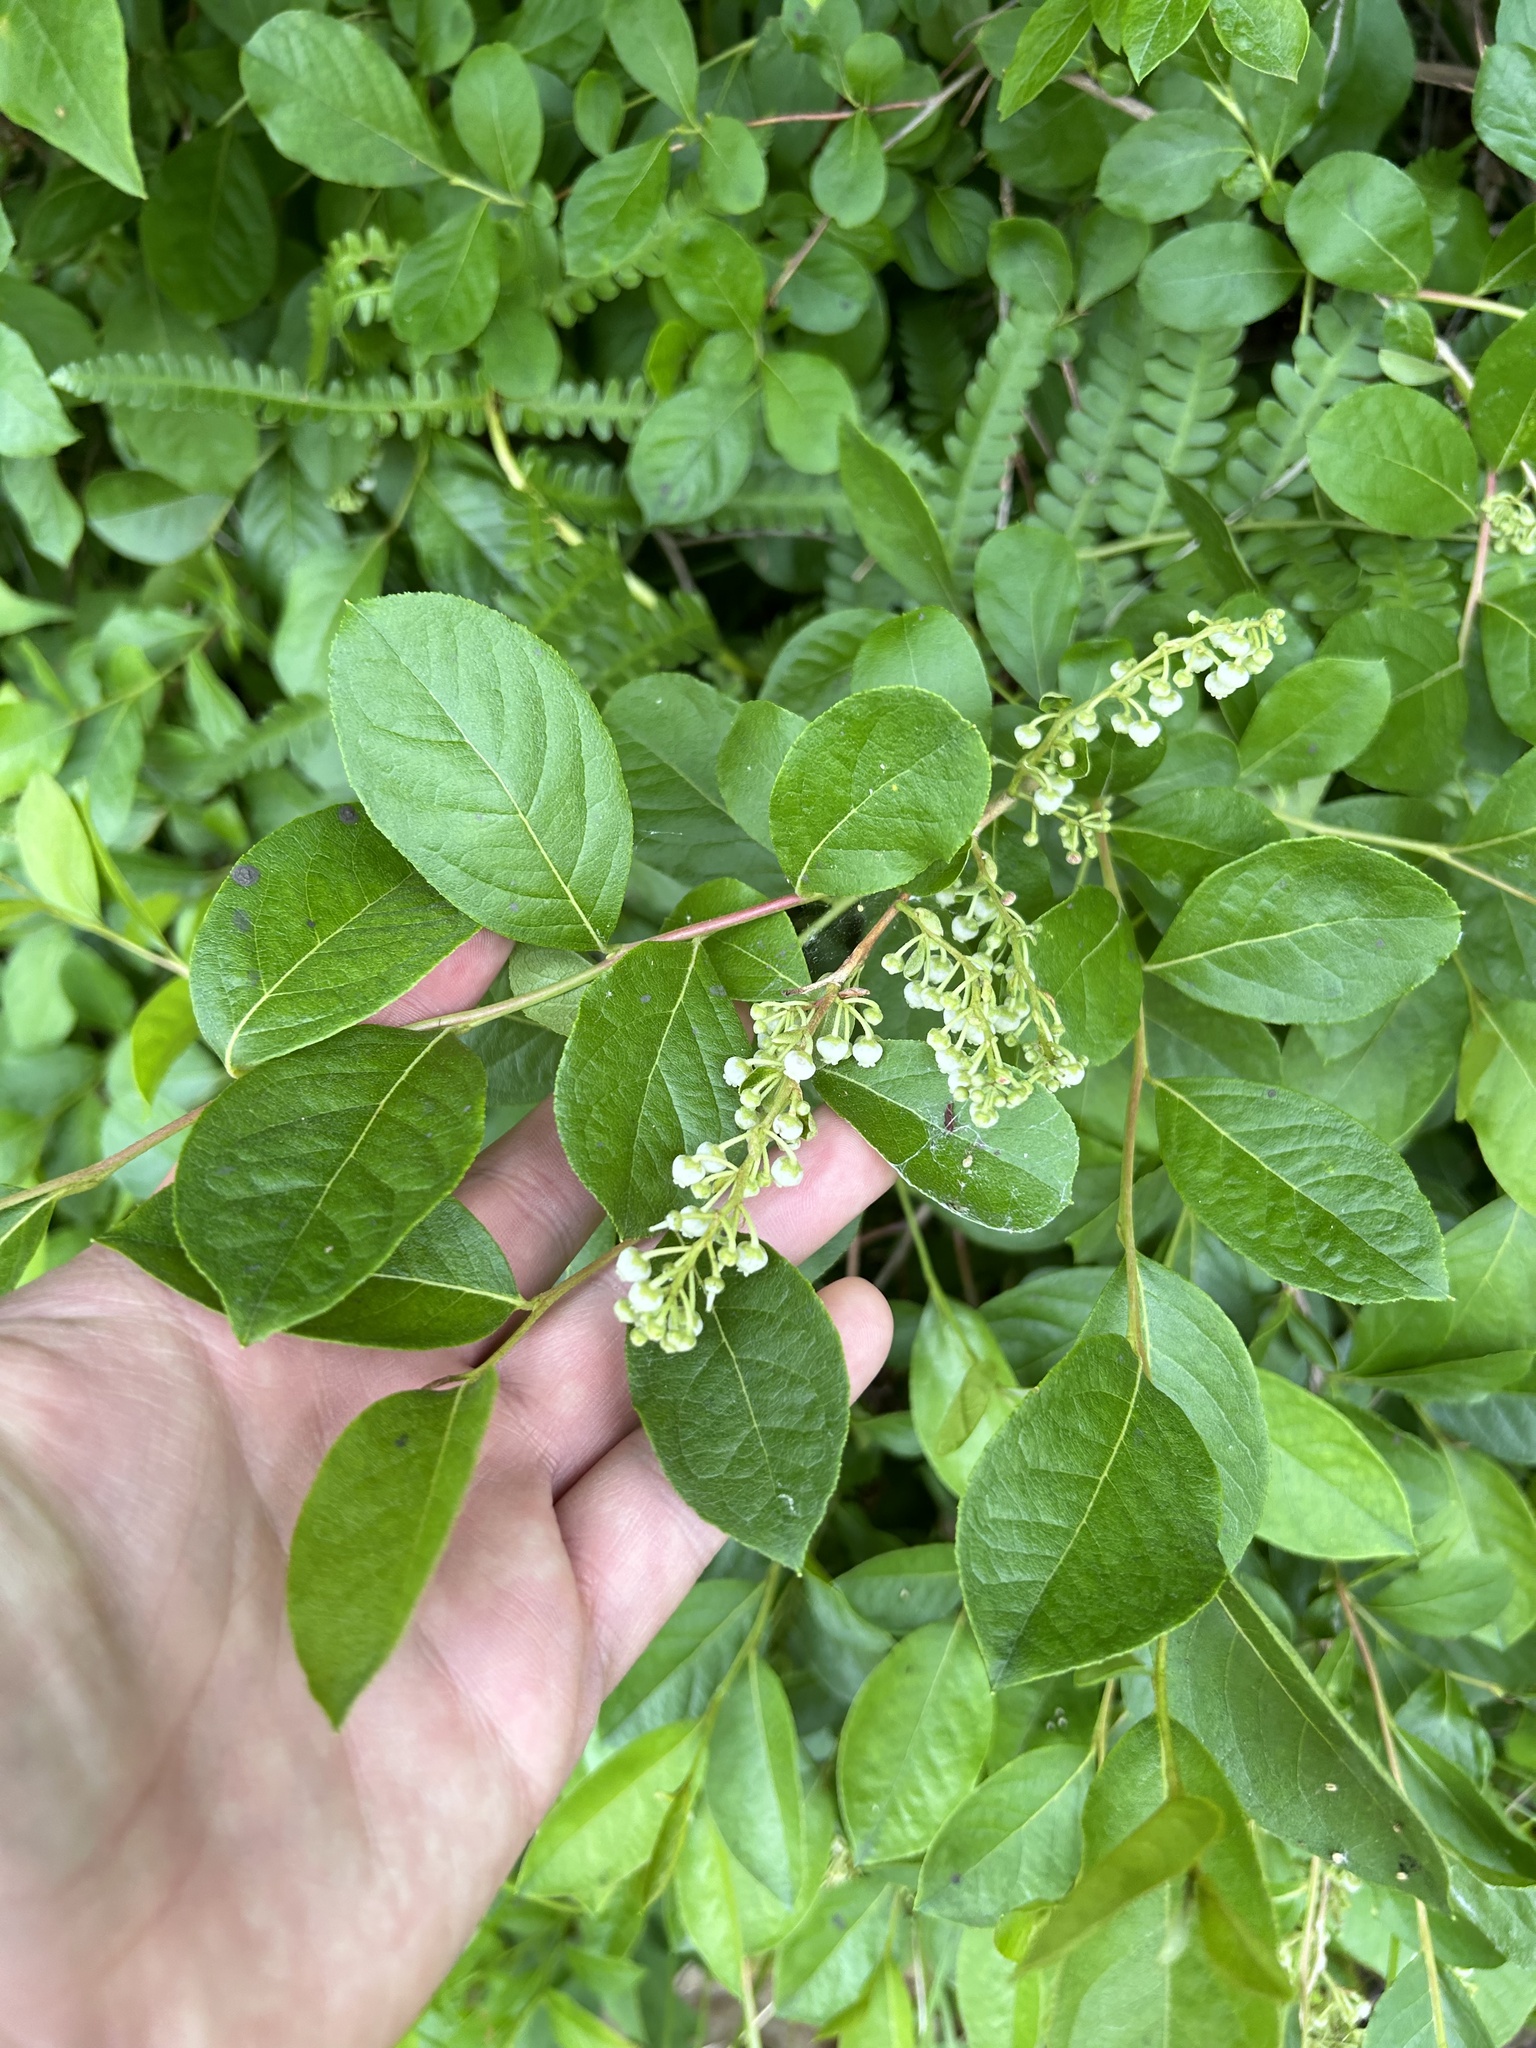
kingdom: Plantae
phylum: Tracheophyta
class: Magnoliopsida
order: Ericales
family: Ericaceae
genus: Lyonia
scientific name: Lyonia ligustrina
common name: Maleberry
